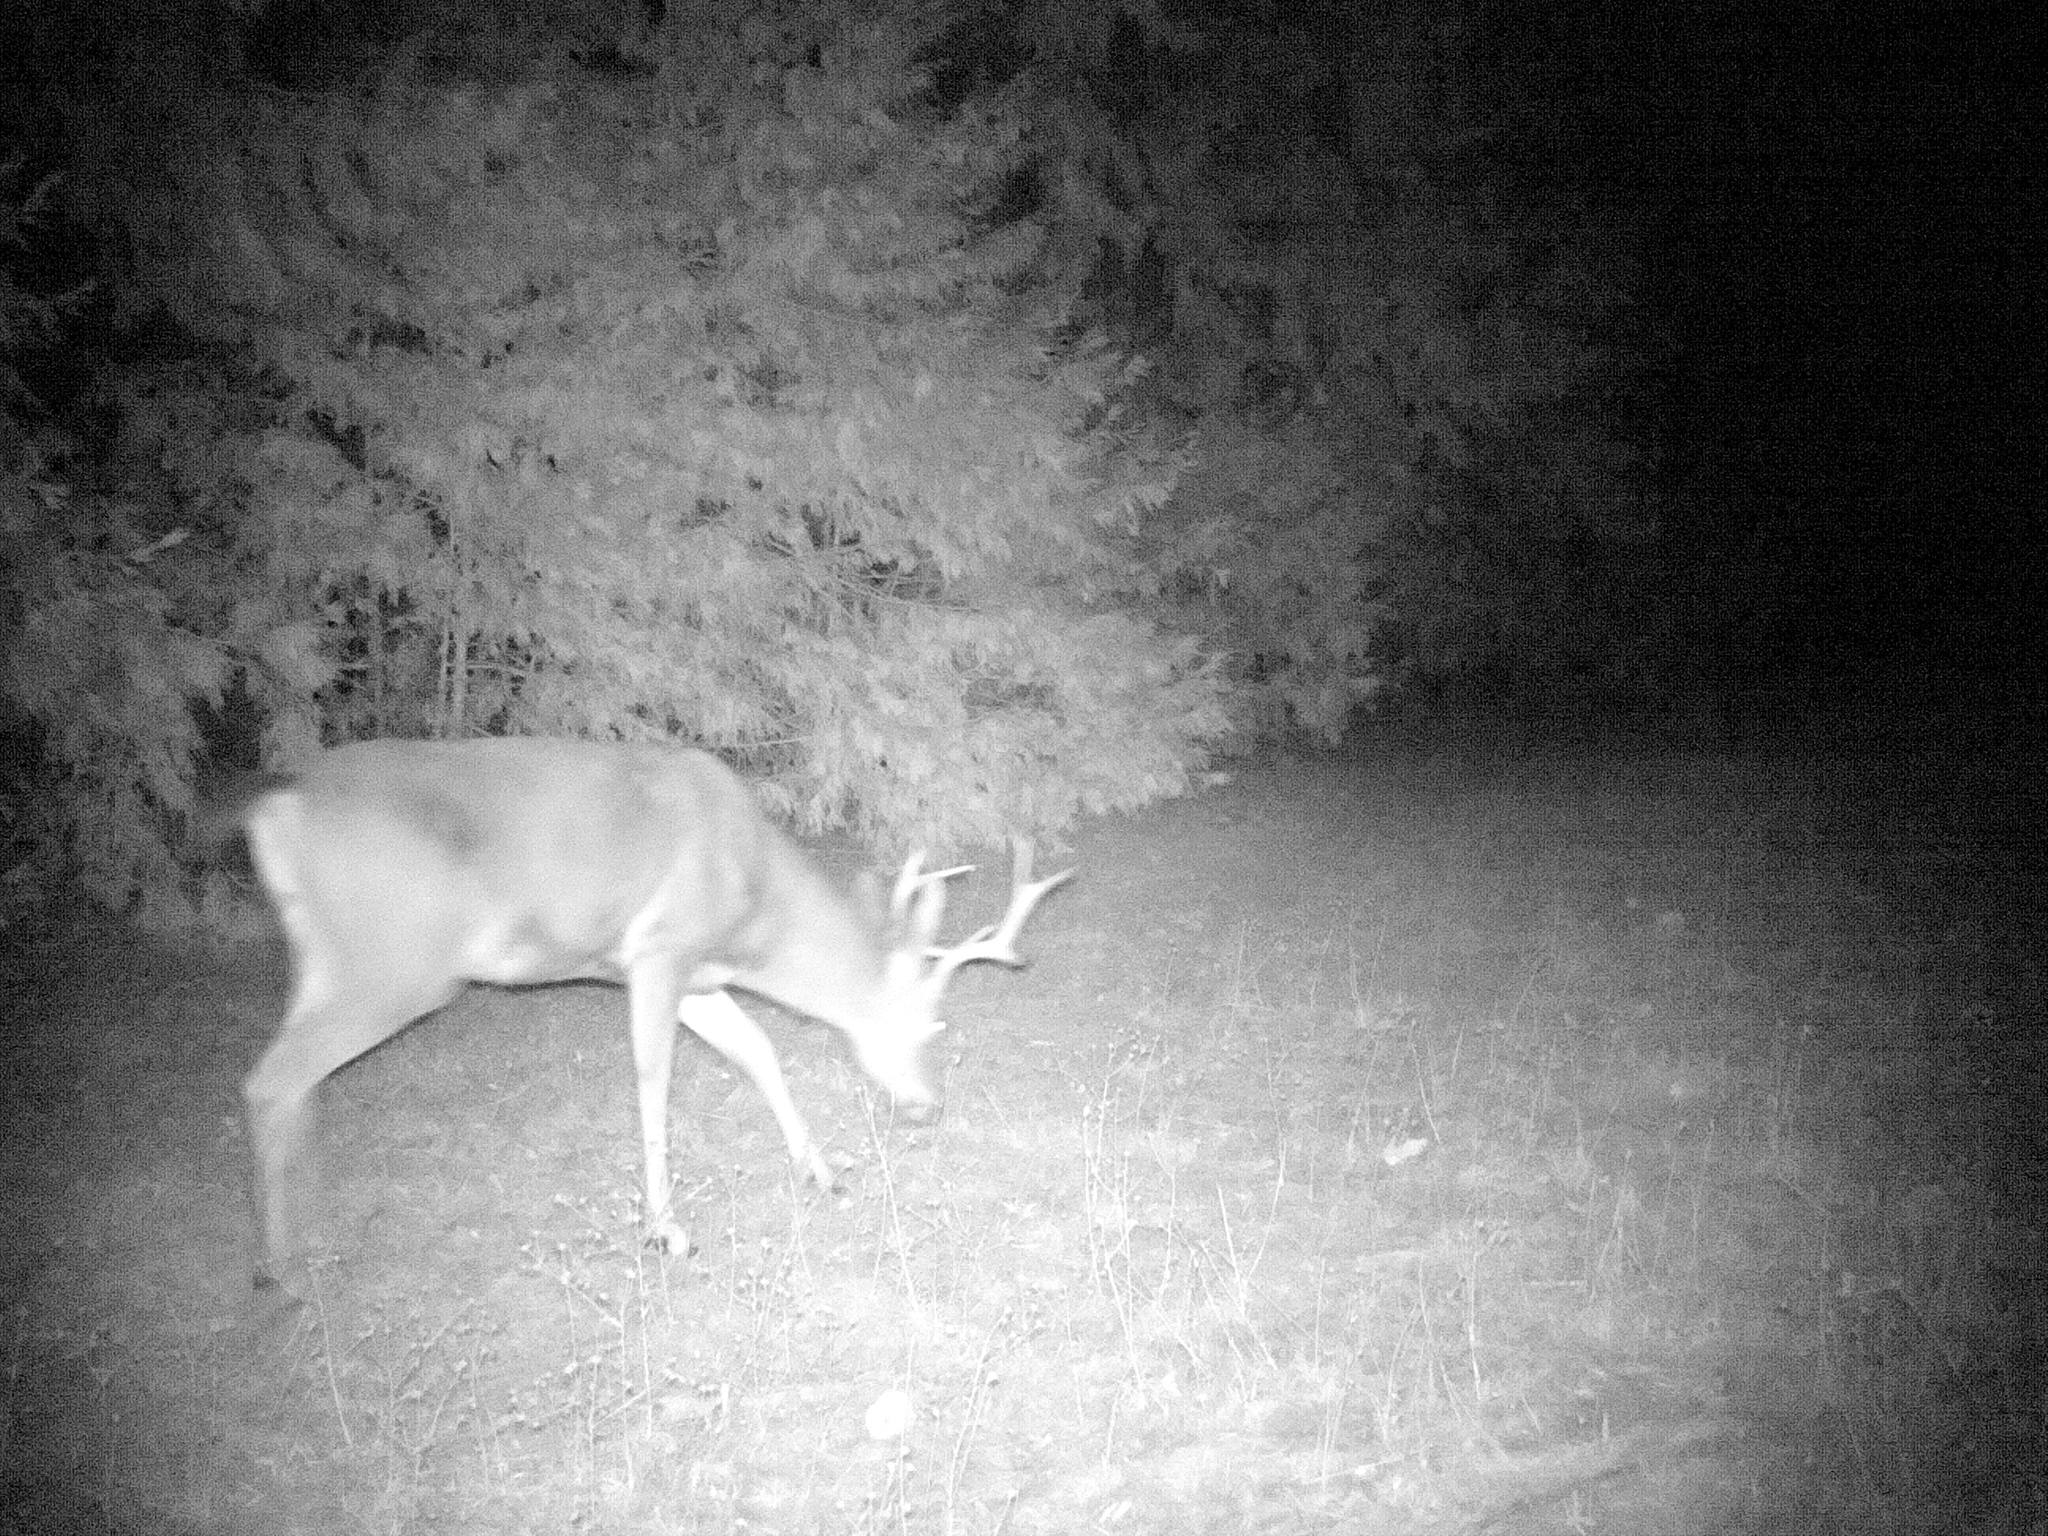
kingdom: Animalia
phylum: Chordata
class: Mammalia
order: Artiodactyla
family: Cervidae
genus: Odocoileus
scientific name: Odocoileus hemionus
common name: Mule deer
